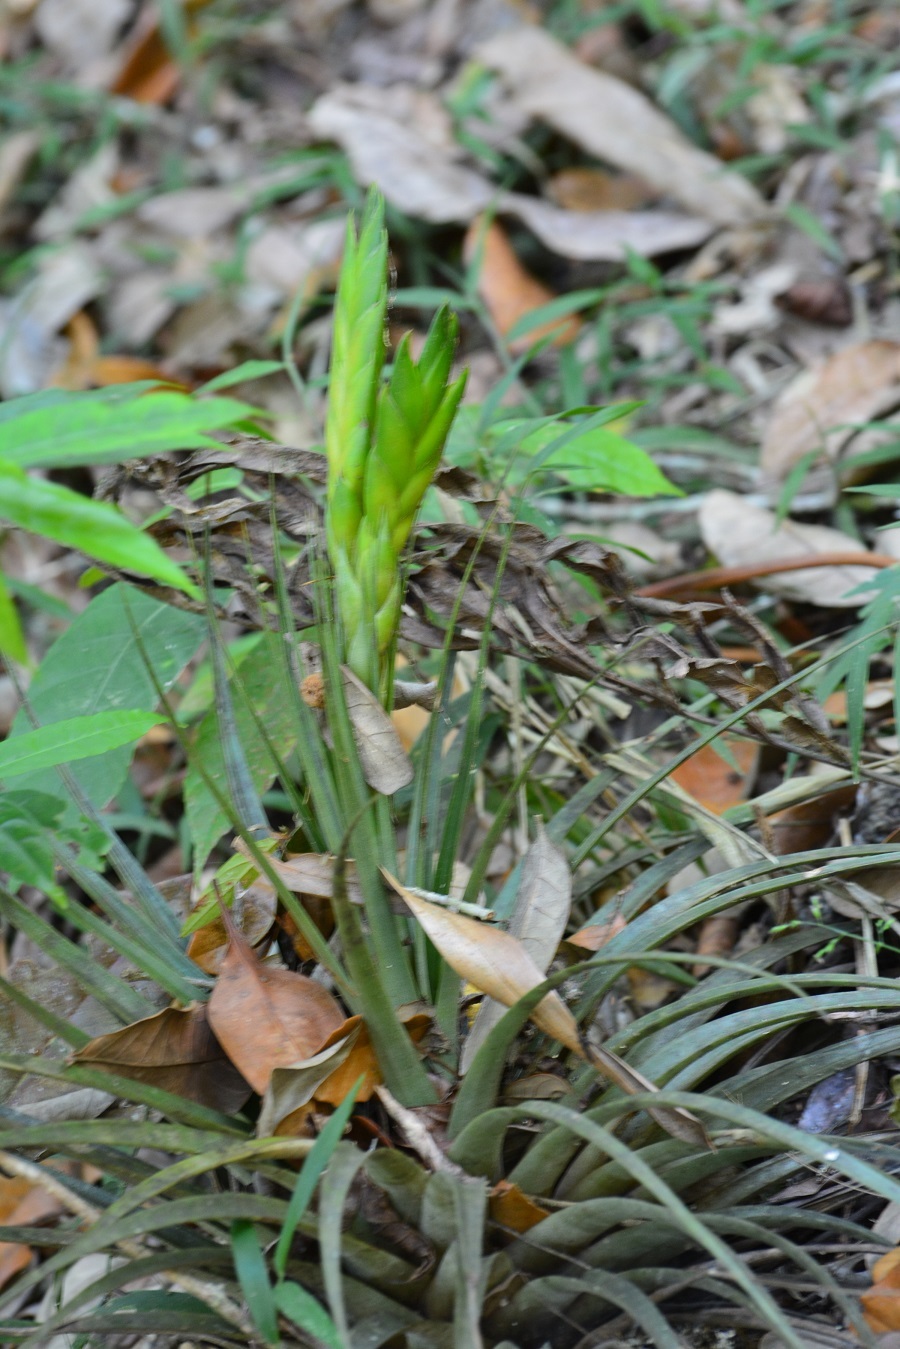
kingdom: Plantae
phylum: Tracheophyta
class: Liliopsida
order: Poales
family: Bromeliaceae
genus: Tillandsia
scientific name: Tillandsia flavobracteata
